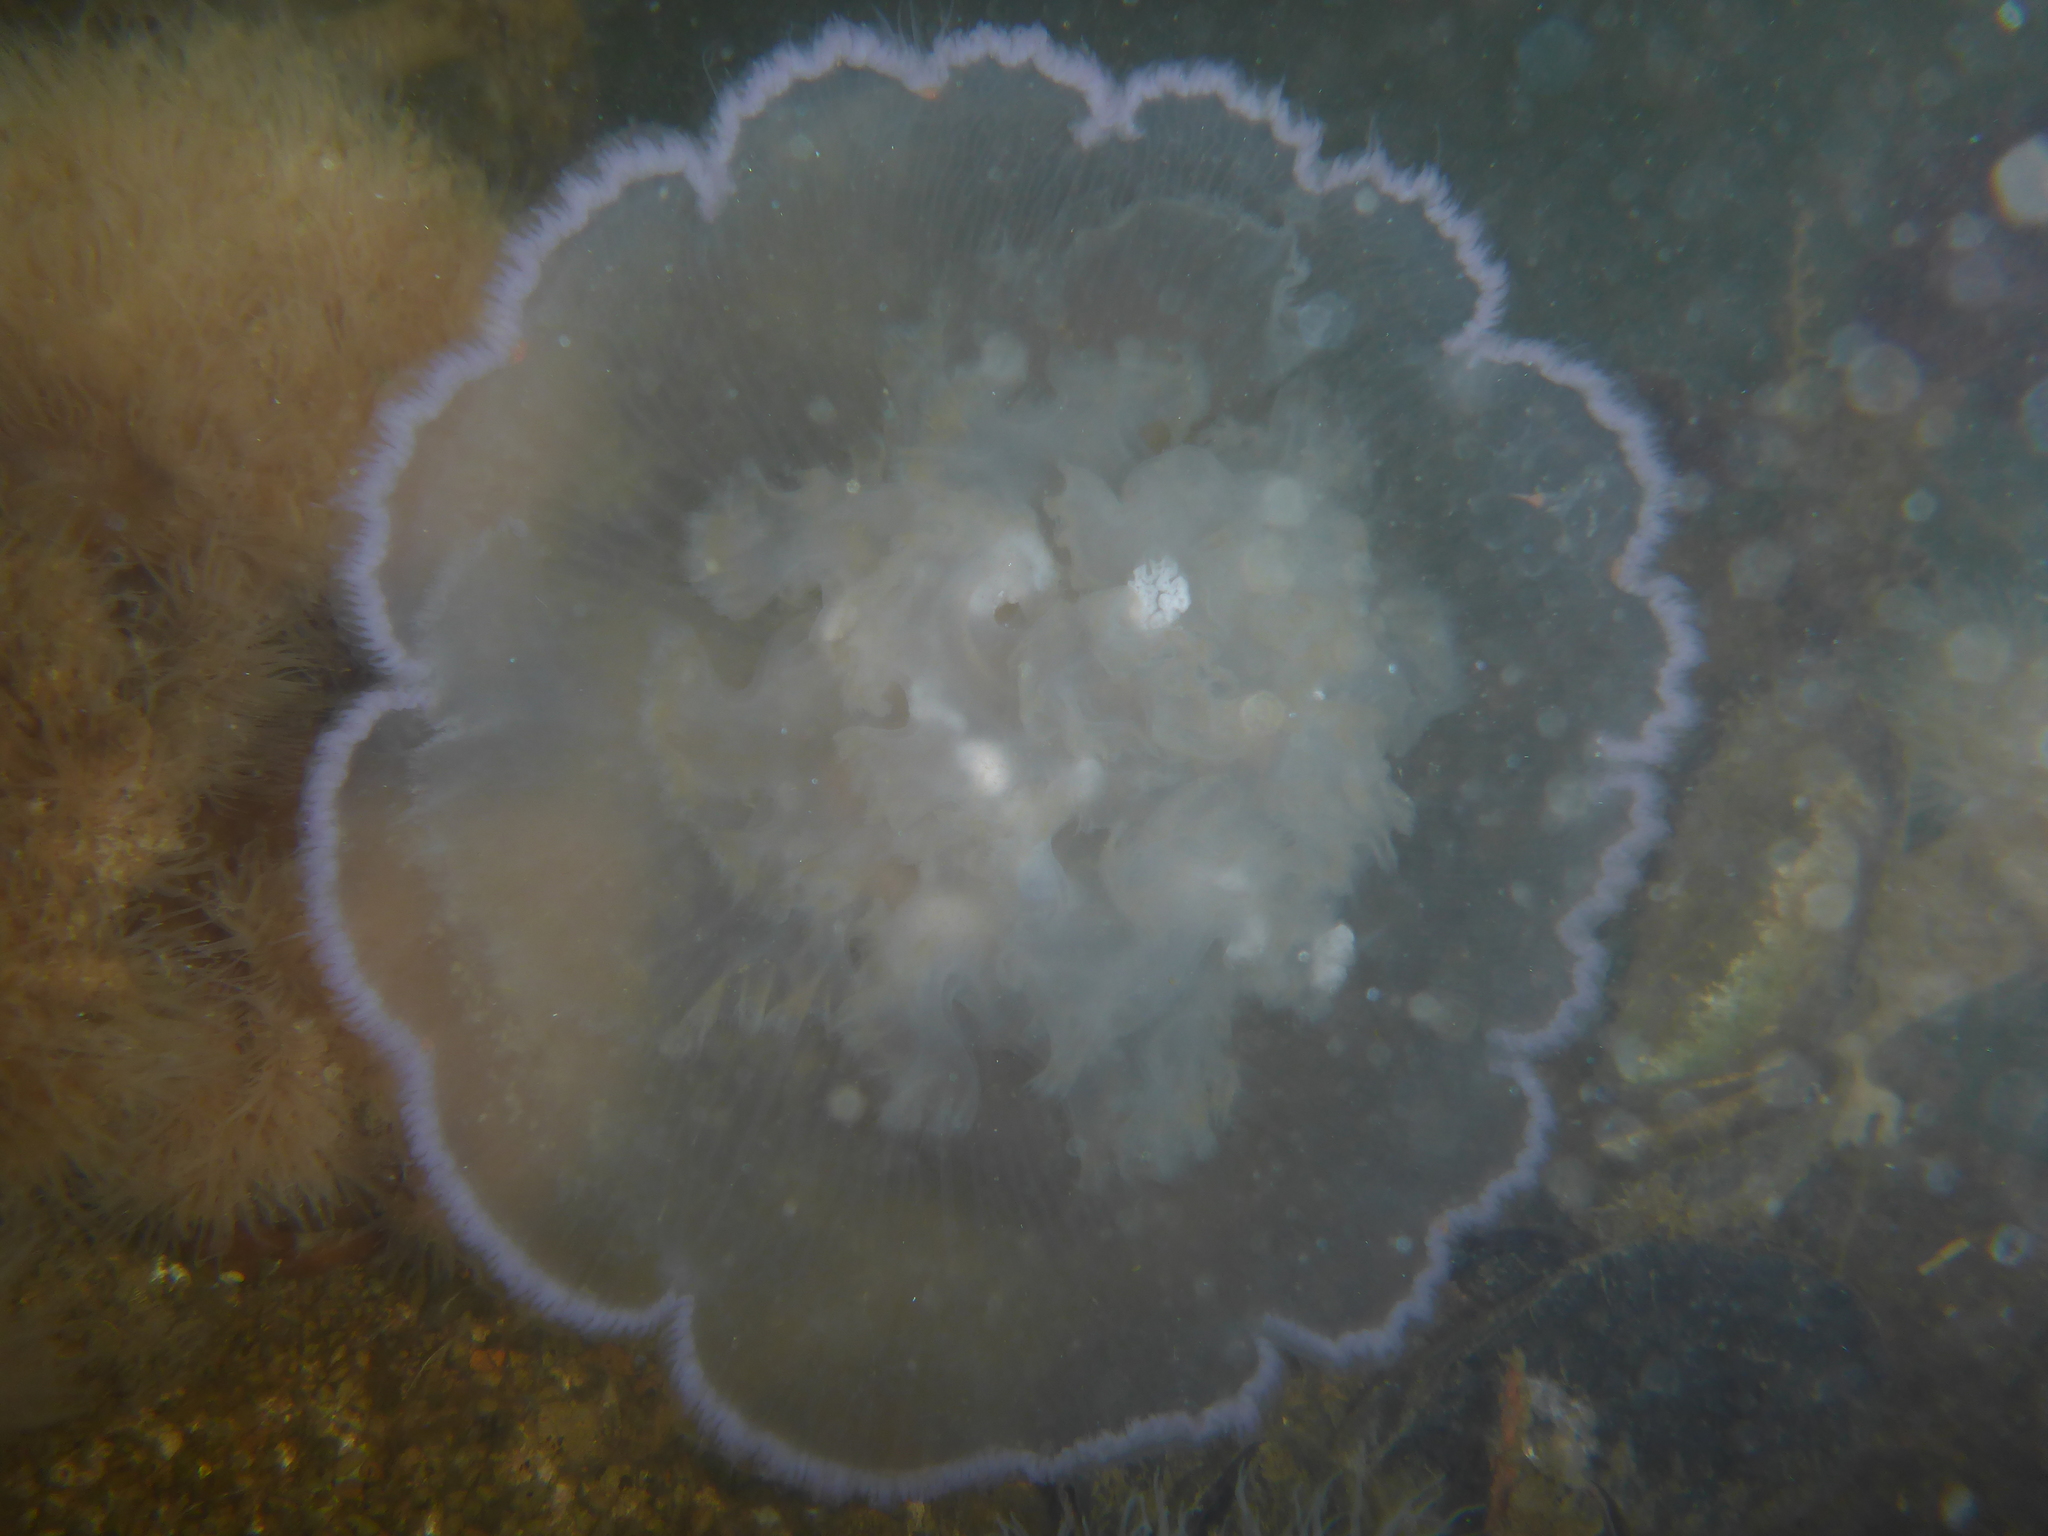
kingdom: Animalia
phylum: Cnidaria
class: Scyphozoa
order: Semaeostomeae
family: Ulmaridae
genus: Aurelia
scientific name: Aurelia labiata
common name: Pacific moon jelly
